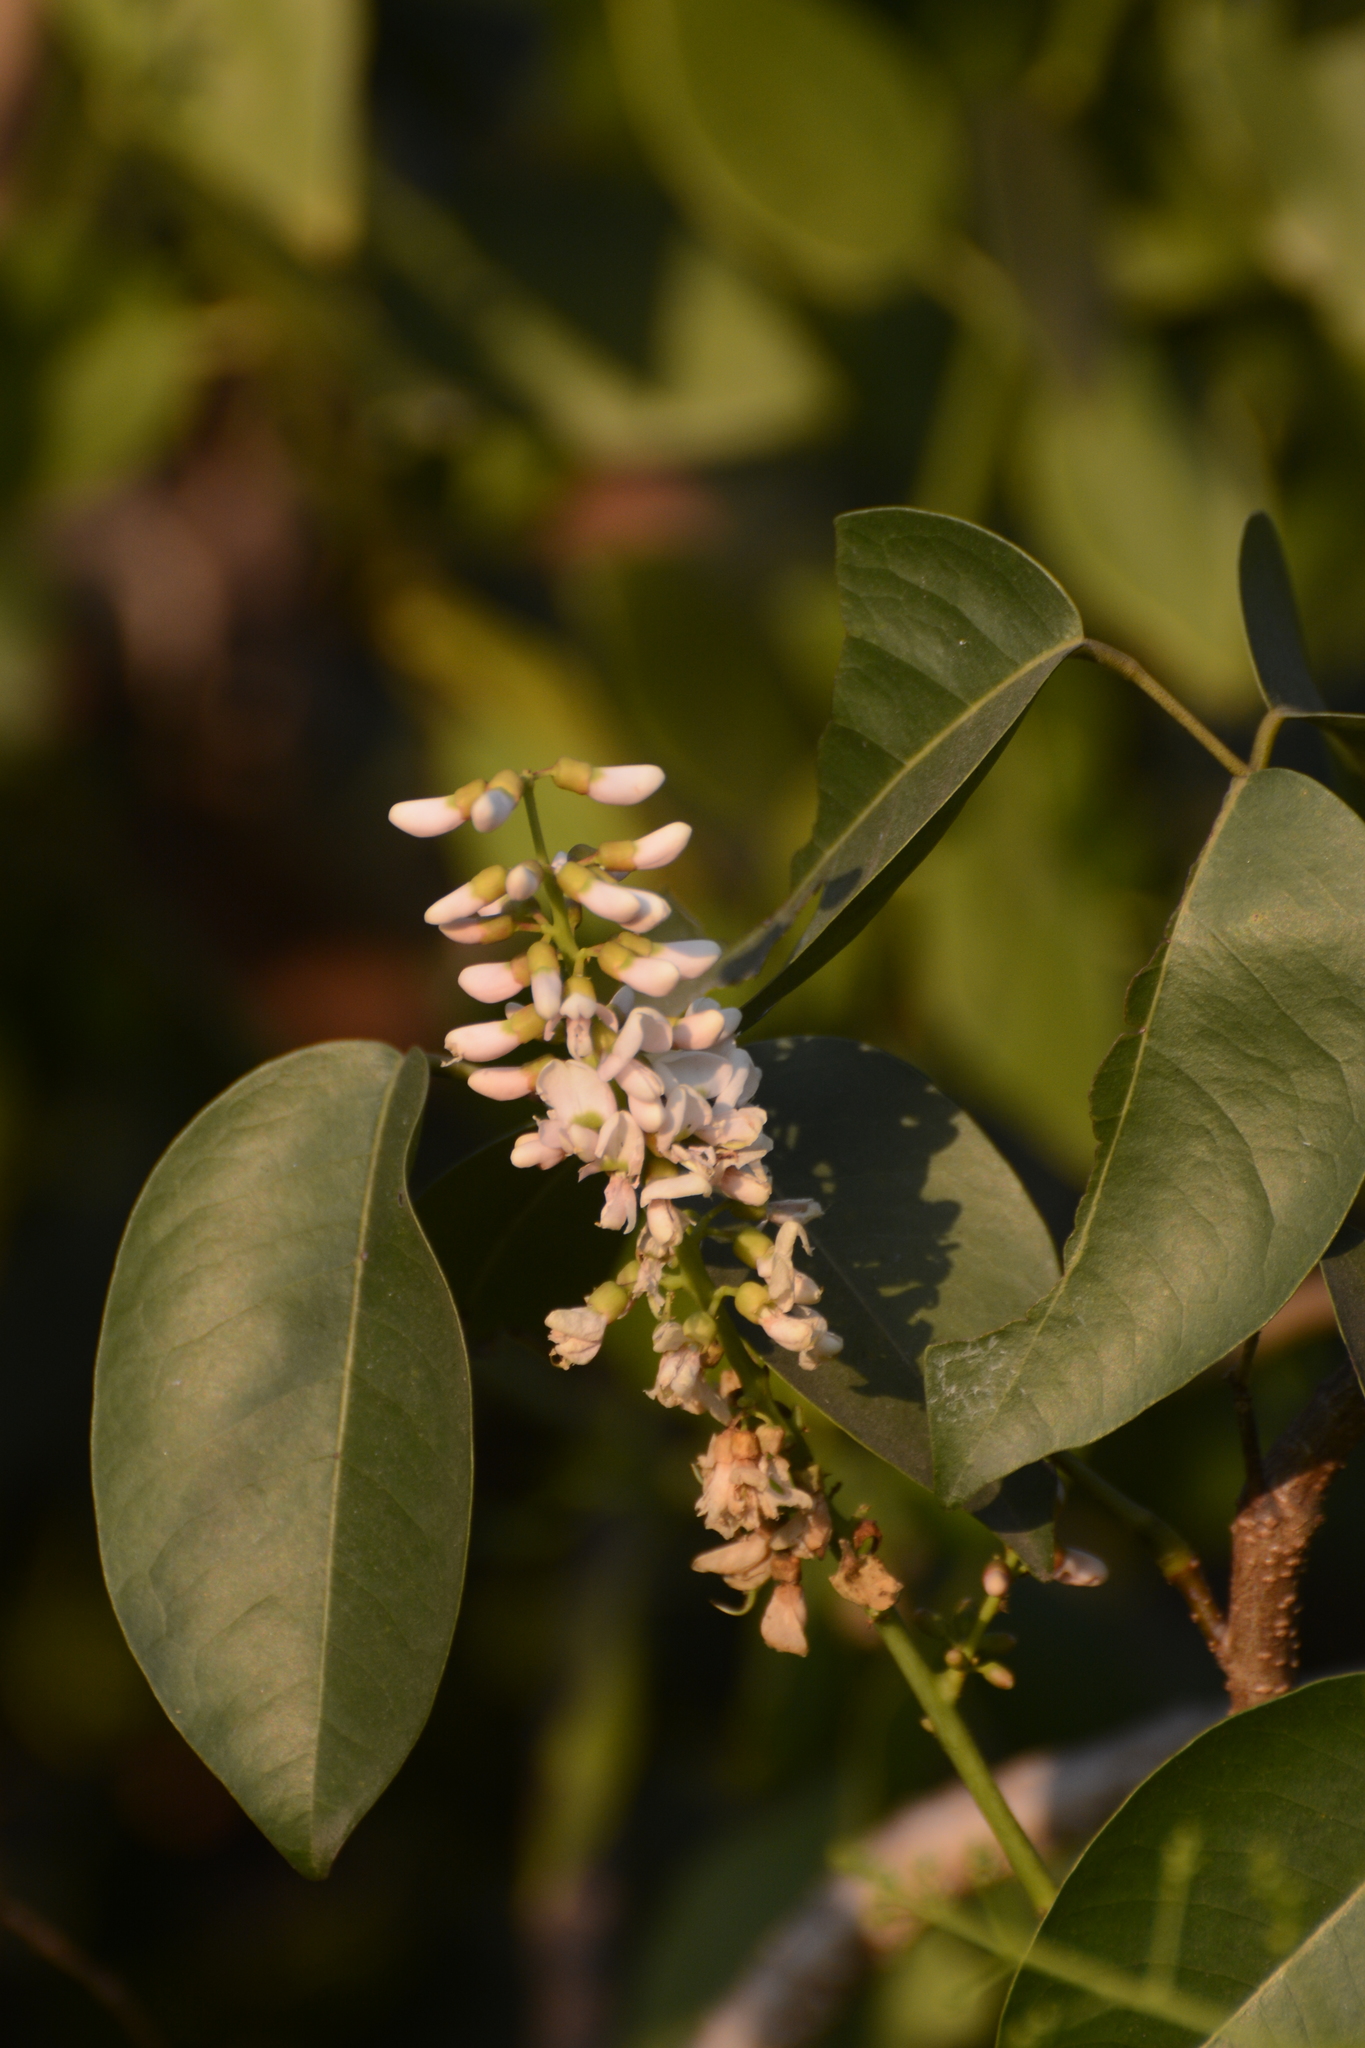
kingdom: Plantae
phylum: Tracheophyta
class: Magnoliopsida
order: Fabales
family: Fabaceae
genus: Derris
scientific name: Derris trifoliata
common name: Three-leaf derris
